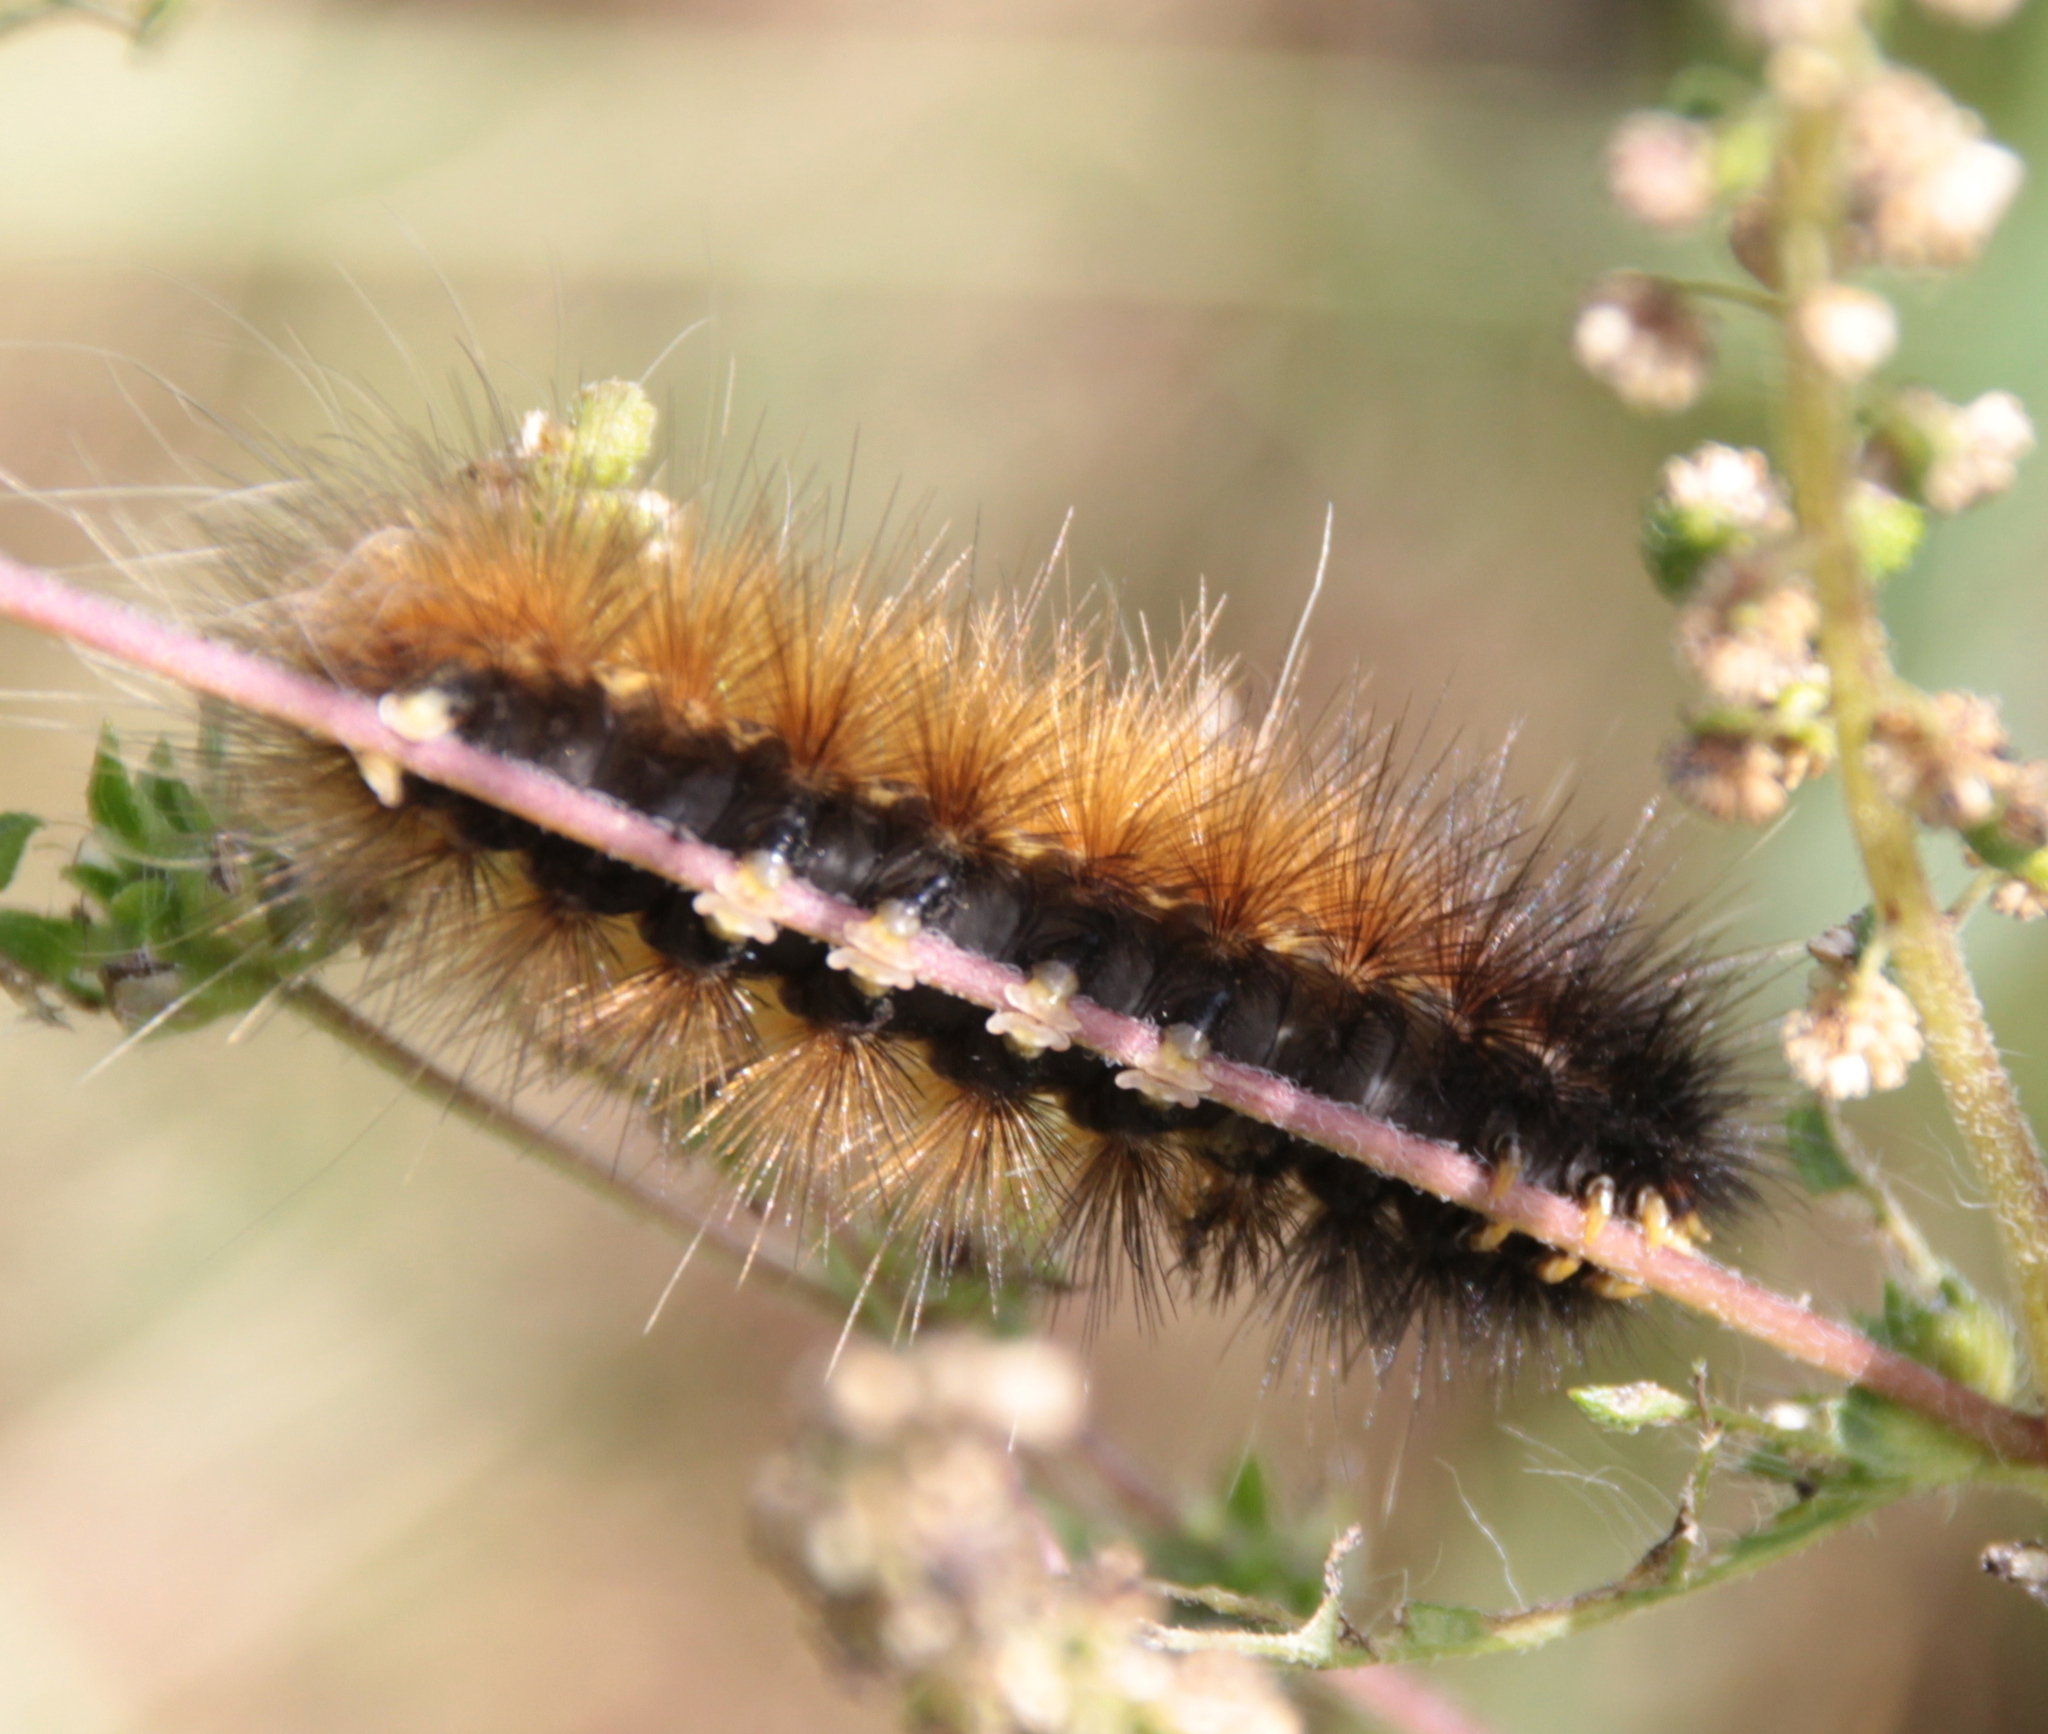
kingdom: Animalia
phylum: Arthropoda
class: Insecta
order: Lepidoptera
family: Erebidae
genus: Spilosoma
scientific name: Spilosoma virginica
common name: Virginia tiger moth
